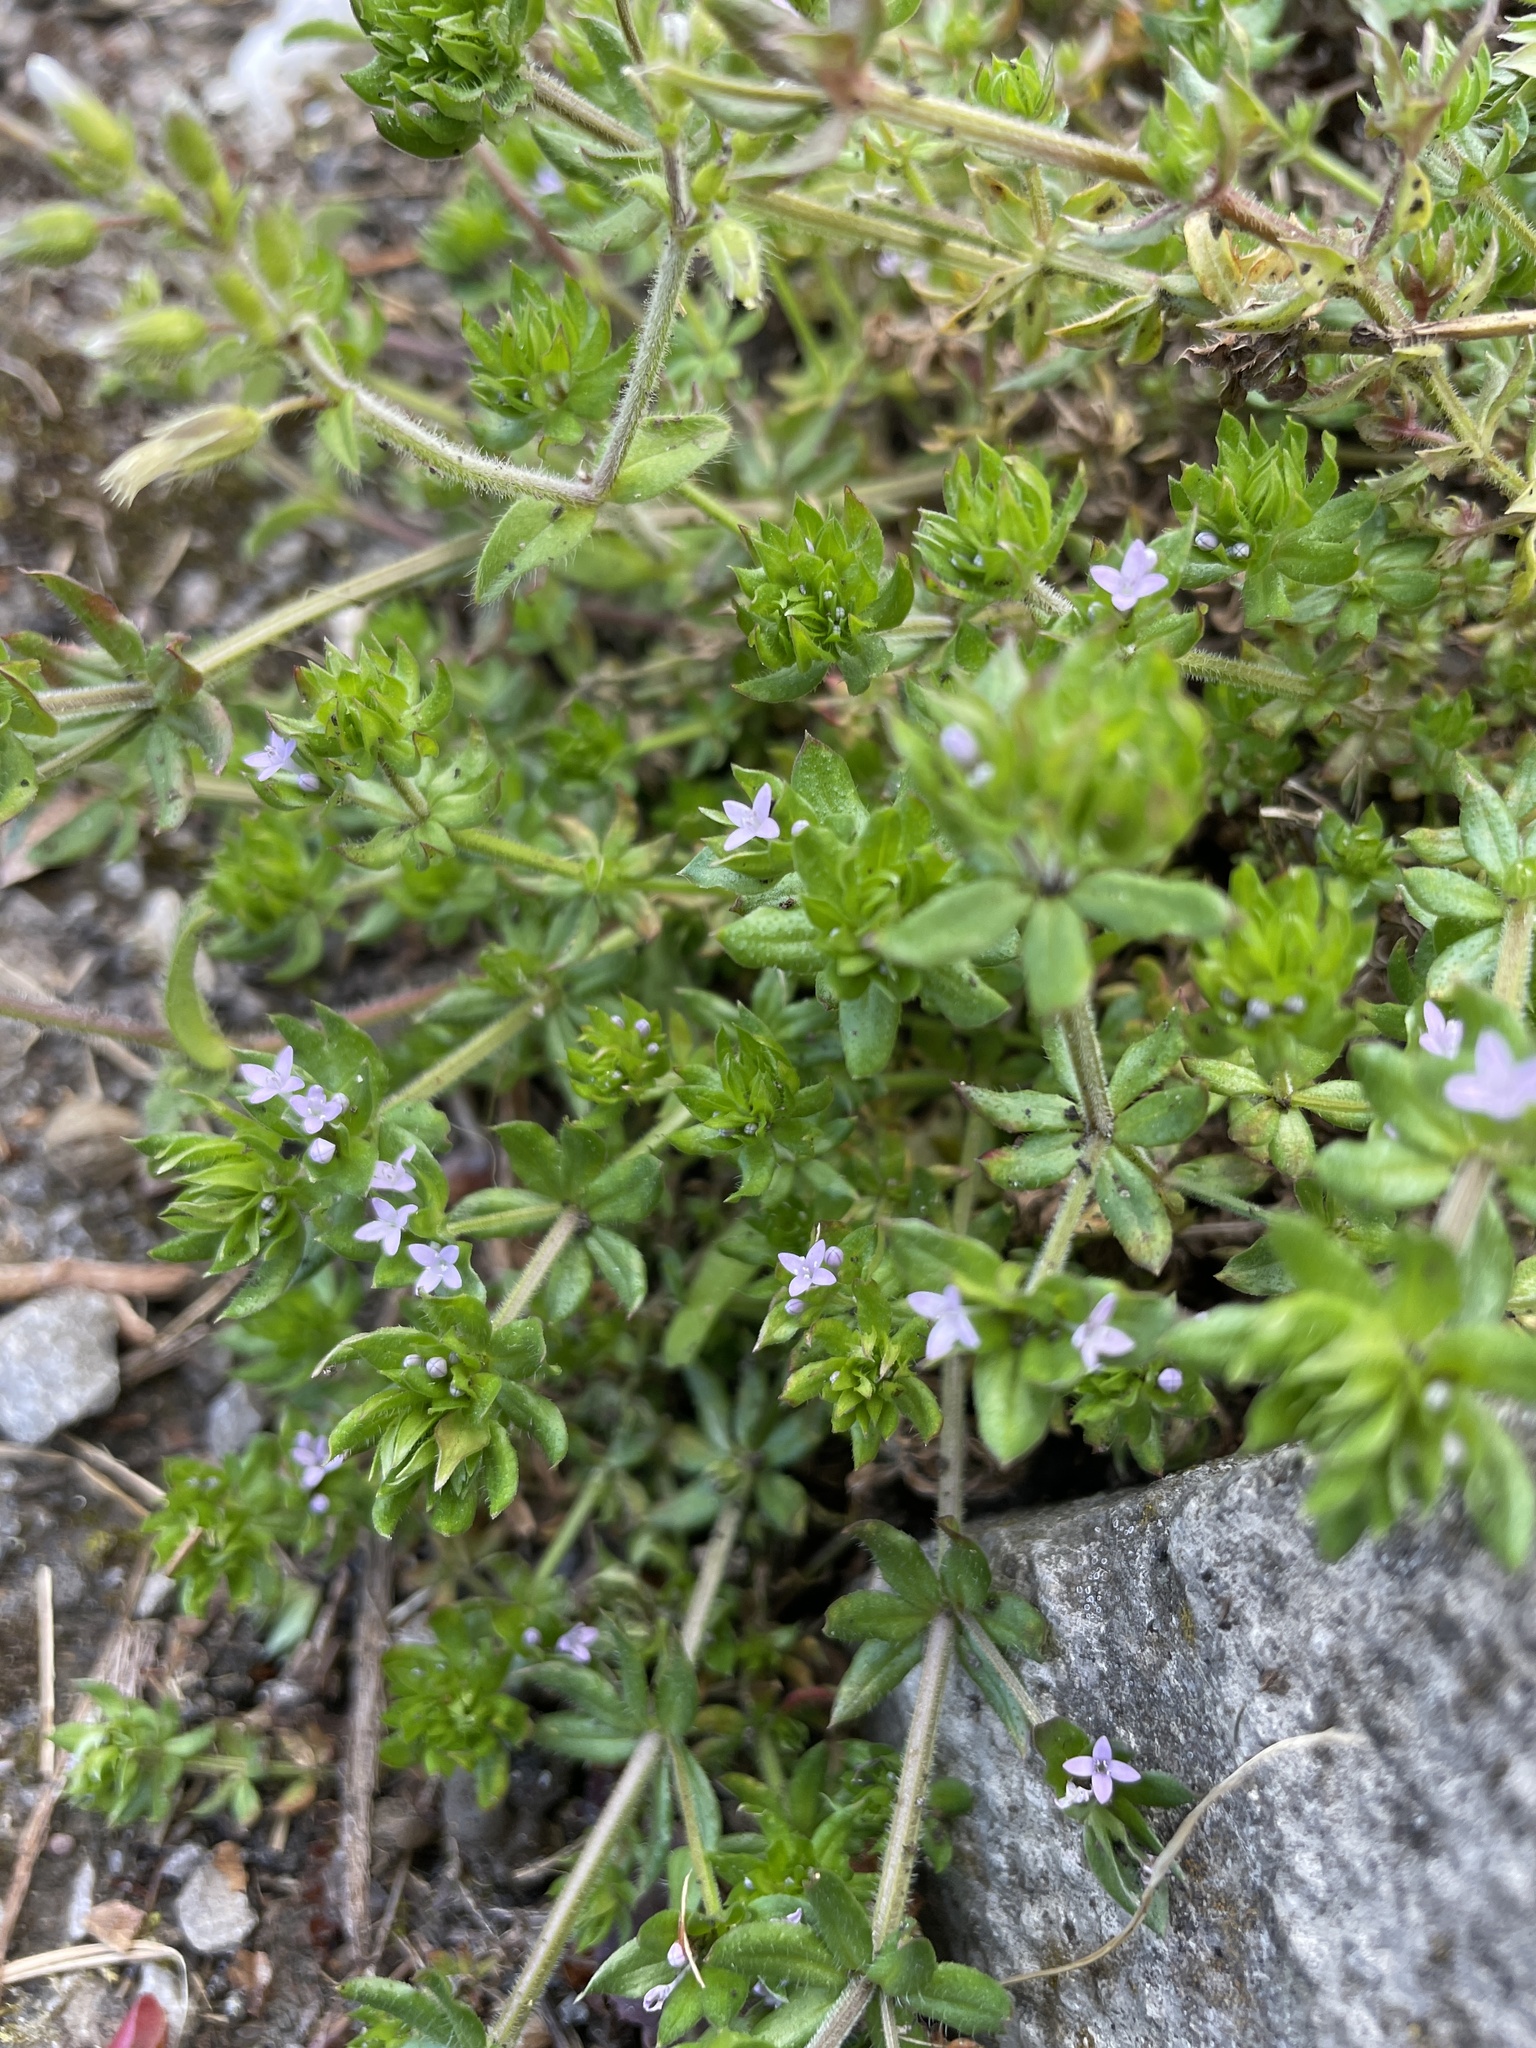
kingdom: Plantae
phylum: Tracheophyta
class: Magnoliopsida
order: Gentianales
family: Rubiaceae
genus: Sherardia
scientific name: Sherardia arvensis
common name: Field madder
